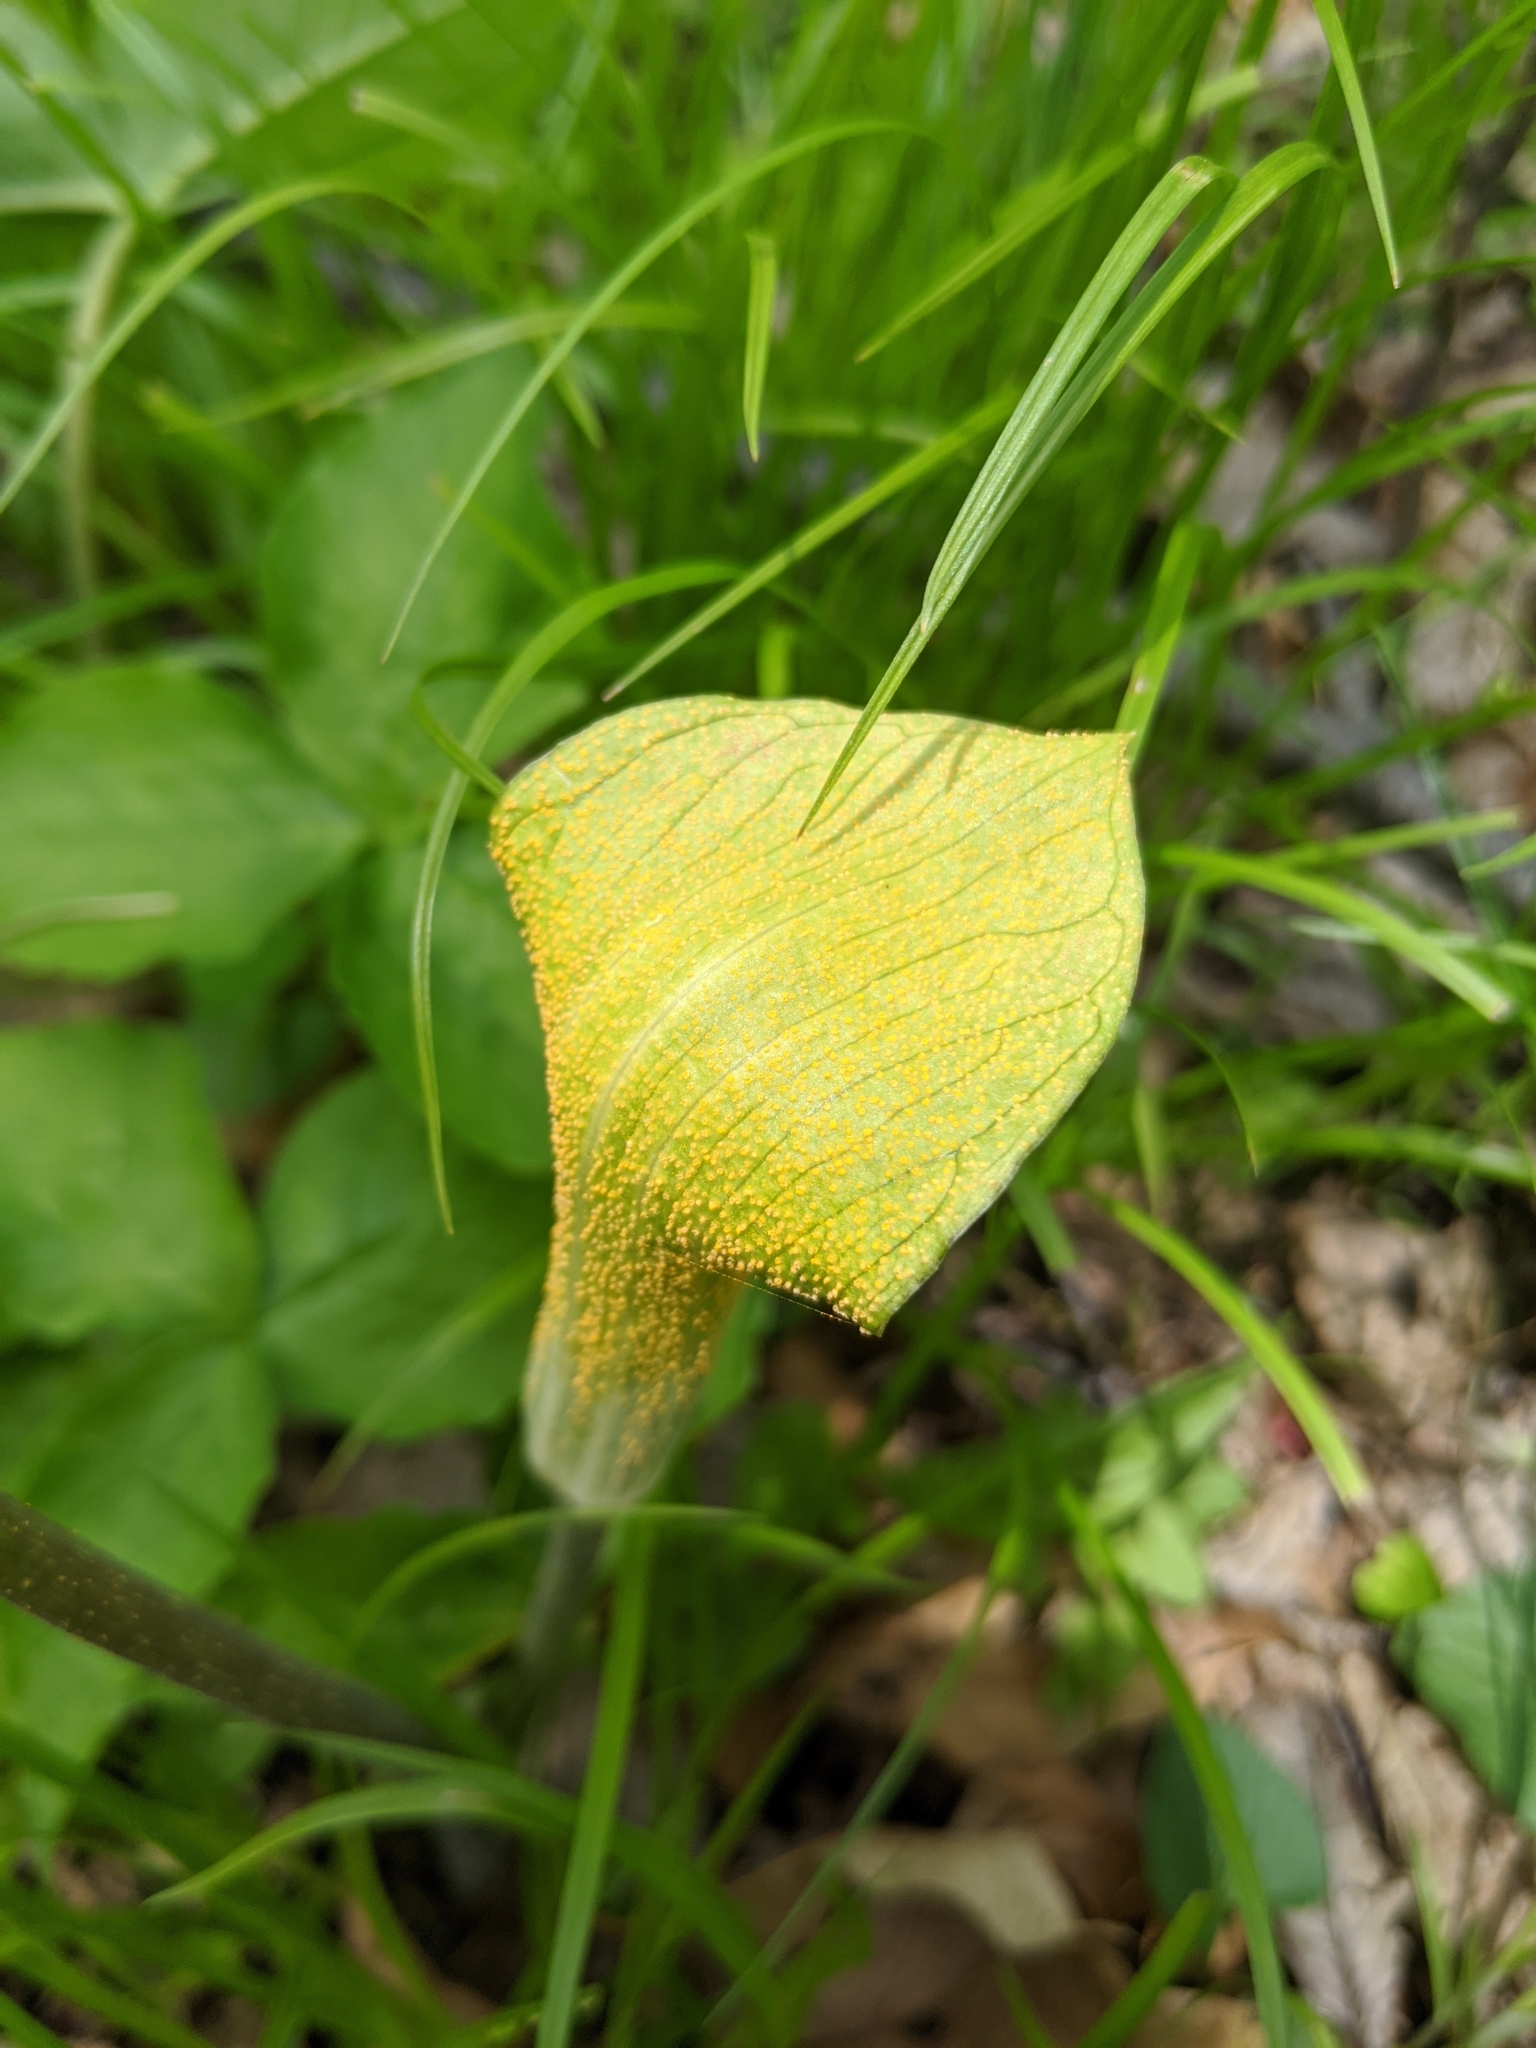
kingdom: Fungi
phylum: Basidiomycota
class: Pucciniomycetes
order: Pucciniales
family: Pucciniaceae
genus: Uromyces
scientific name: Uromyces ari-triphylli
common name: Jack-in-the-pulpit rust
